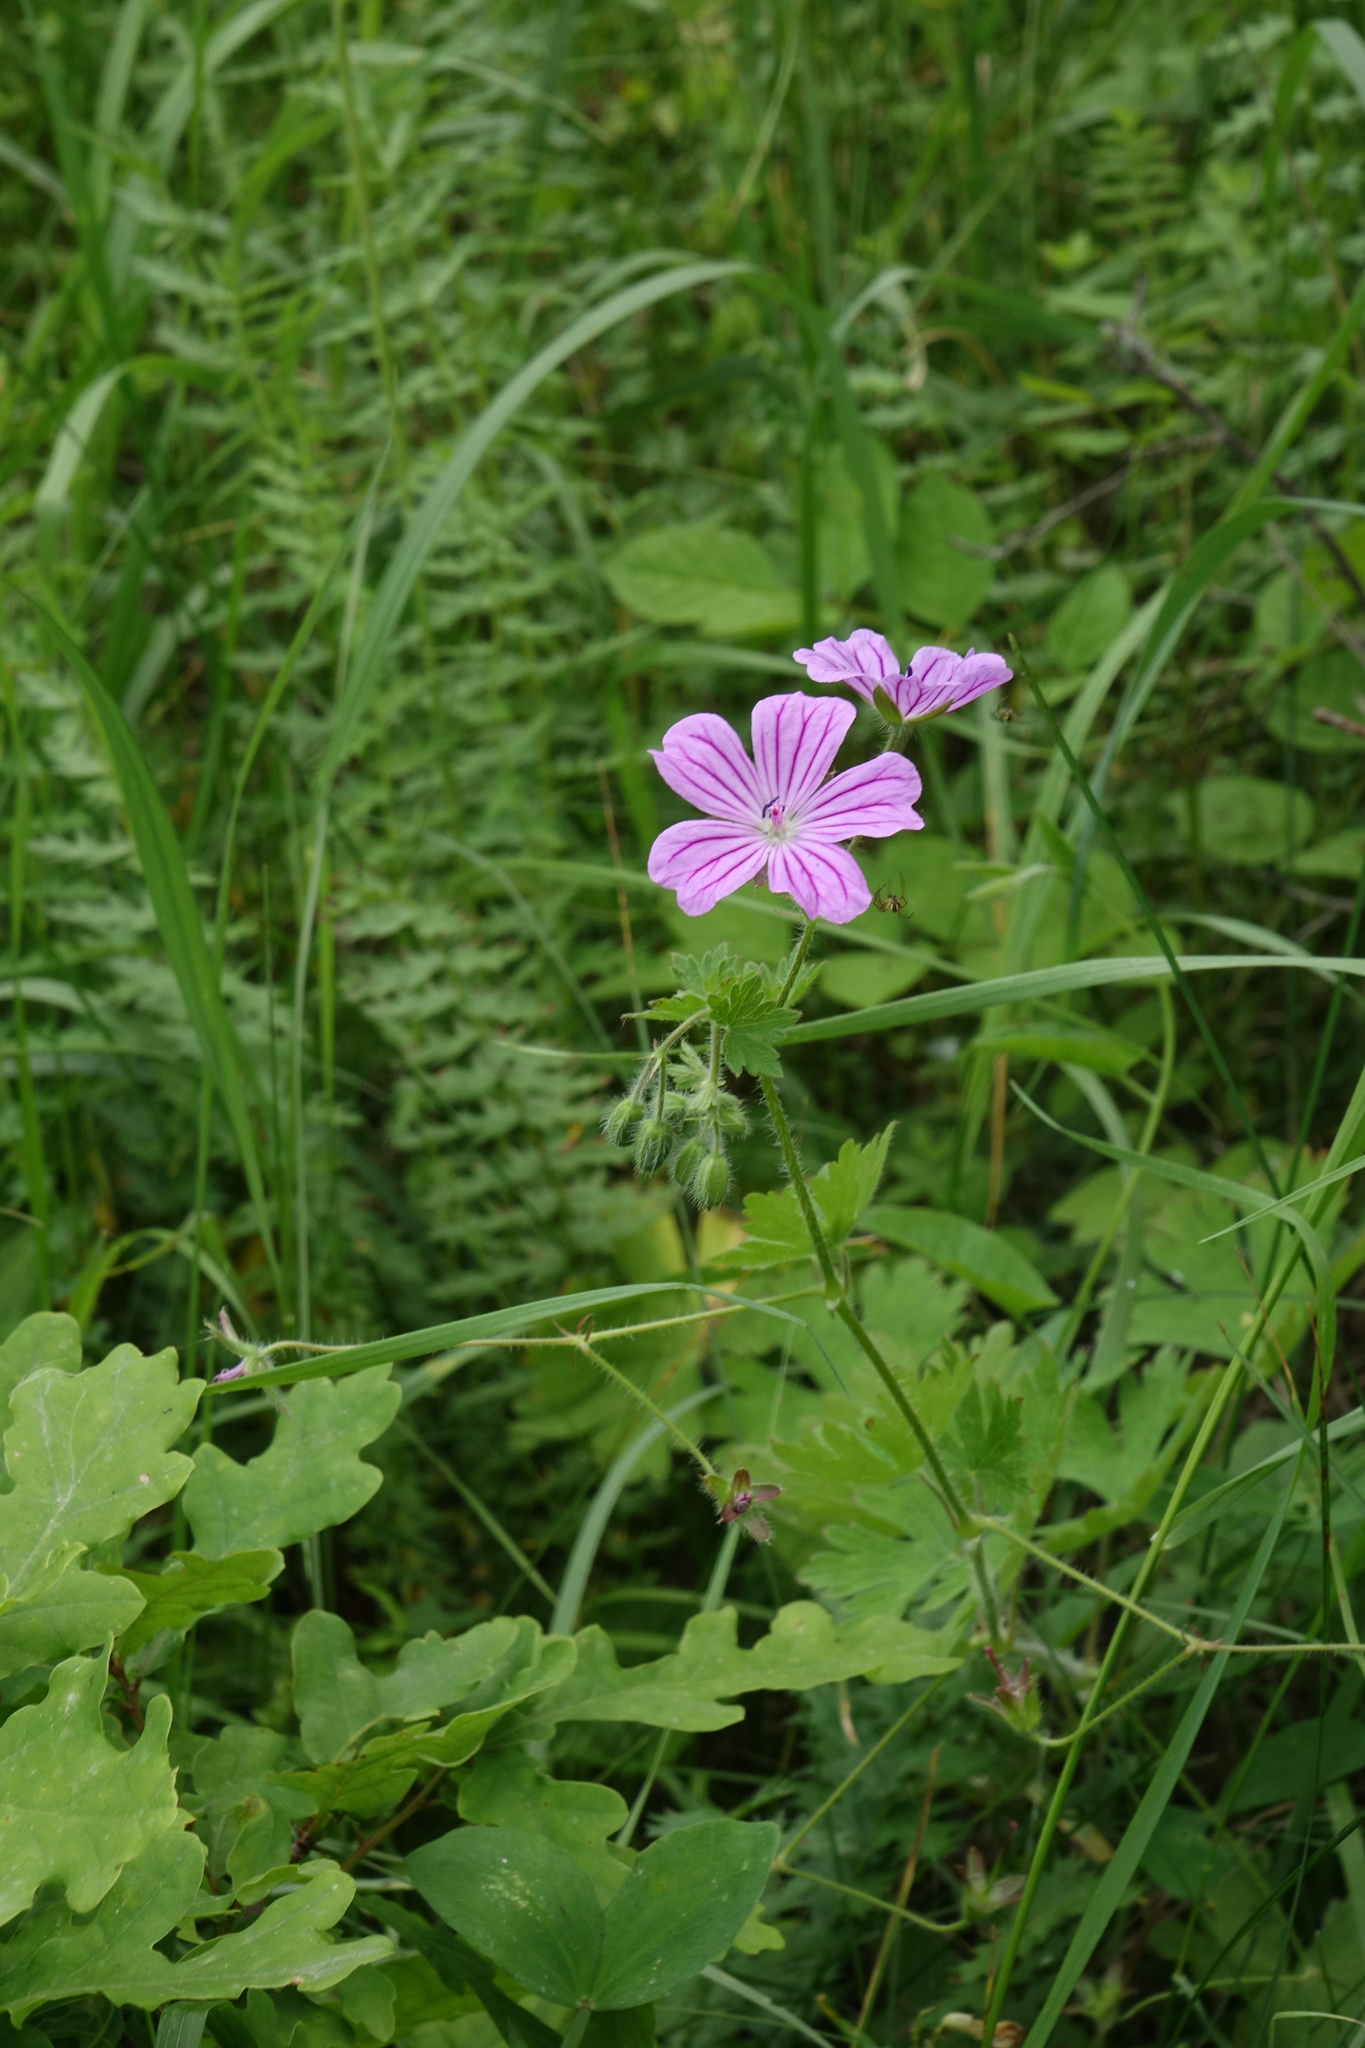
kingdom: Plantae
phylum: Tracheophyta
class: Magnoliopsida
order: Geraniales
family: Geraniaceae
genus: Geranium
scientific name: Geranium albanum
